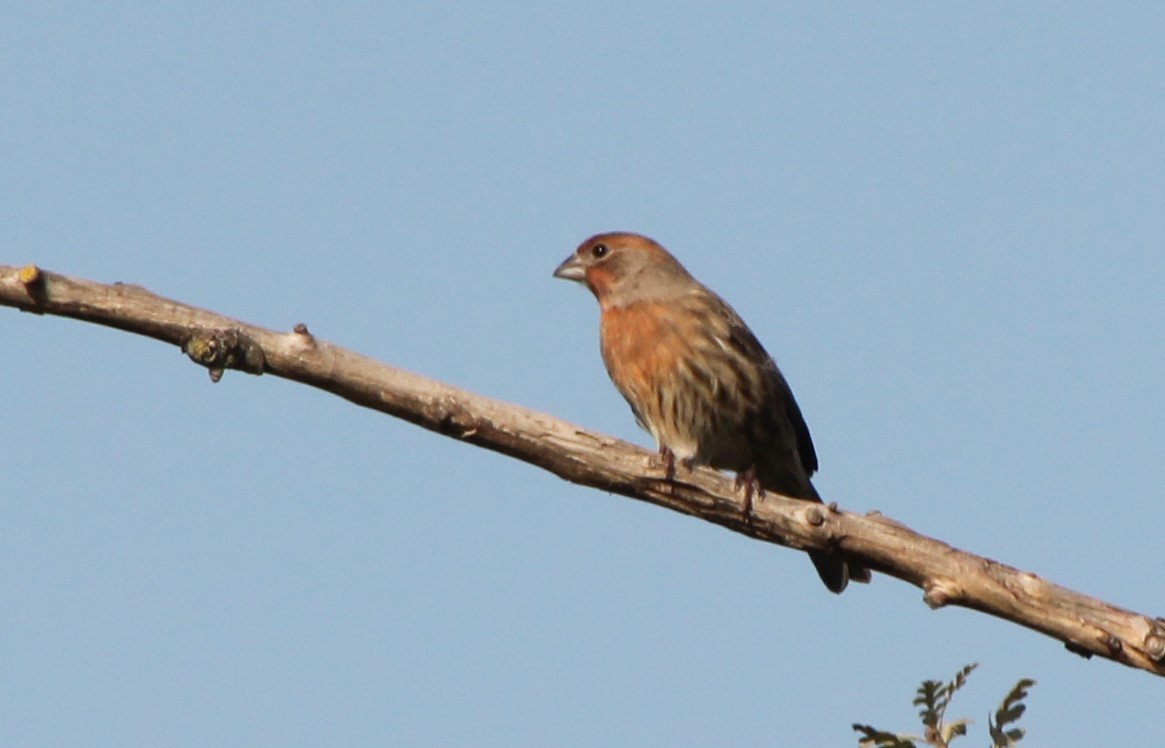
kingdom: Animalia
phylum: Chordata
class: Aves
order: Passeriformes
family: Fringillidae
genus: Haemorhous
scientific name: Haemorhous mexicanus
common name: House finch
